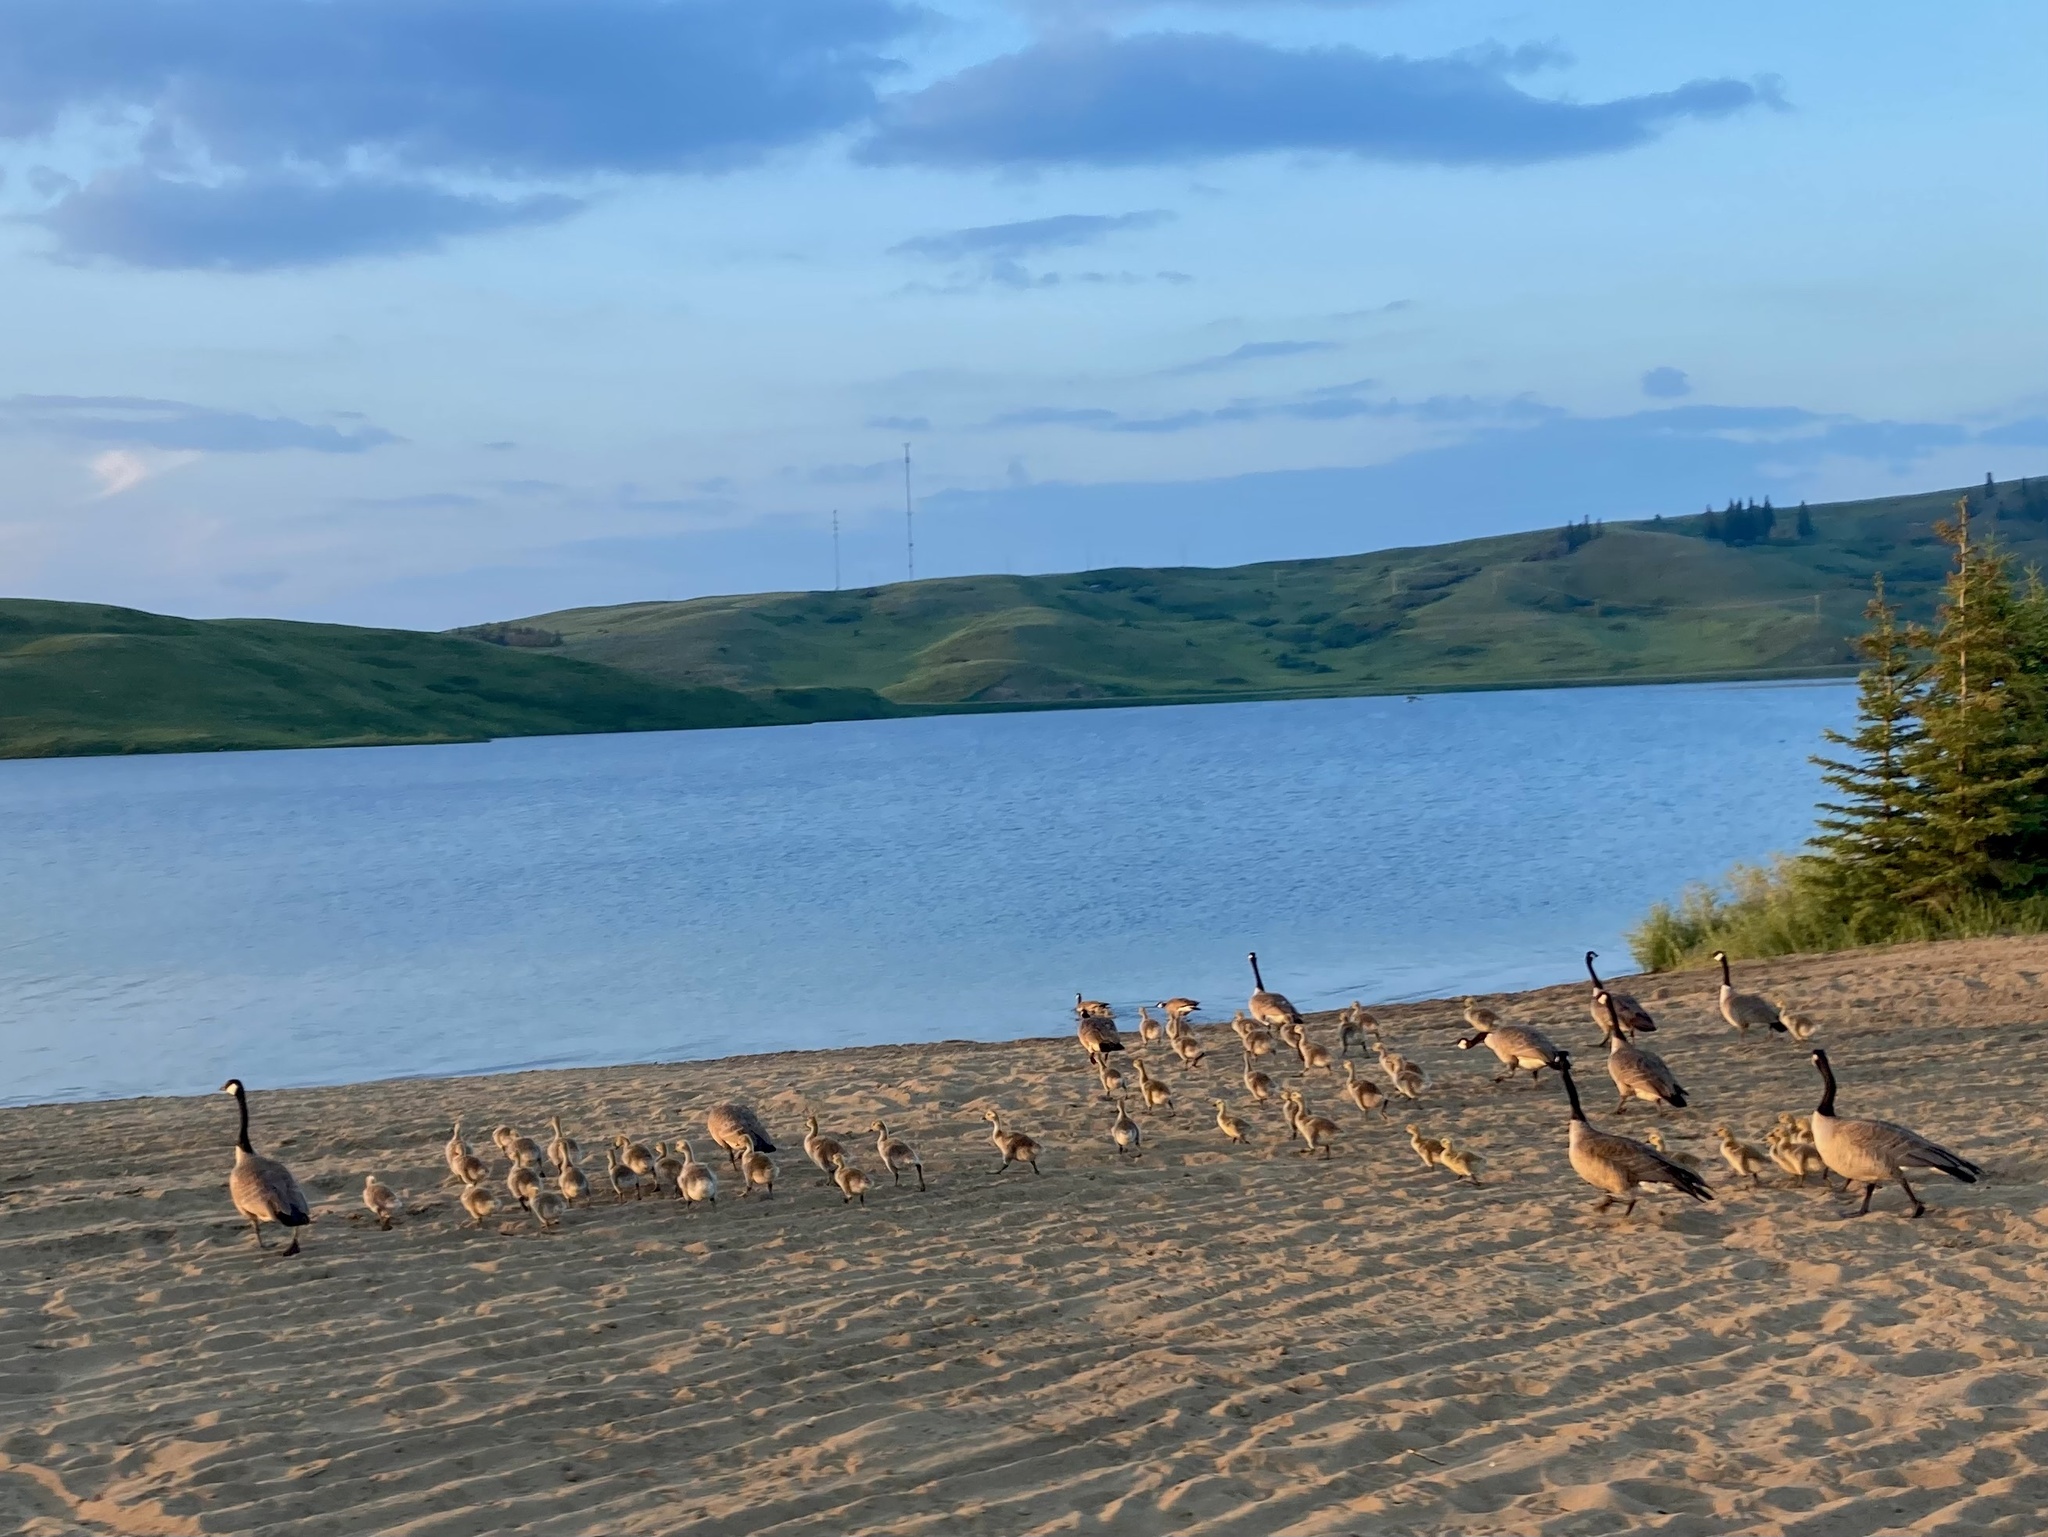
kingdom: Animalia
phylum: Chordata
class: Aves
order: Anseriformes
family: Anatidae
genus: Branta
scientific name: Branta canadensis
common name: Canada goose
